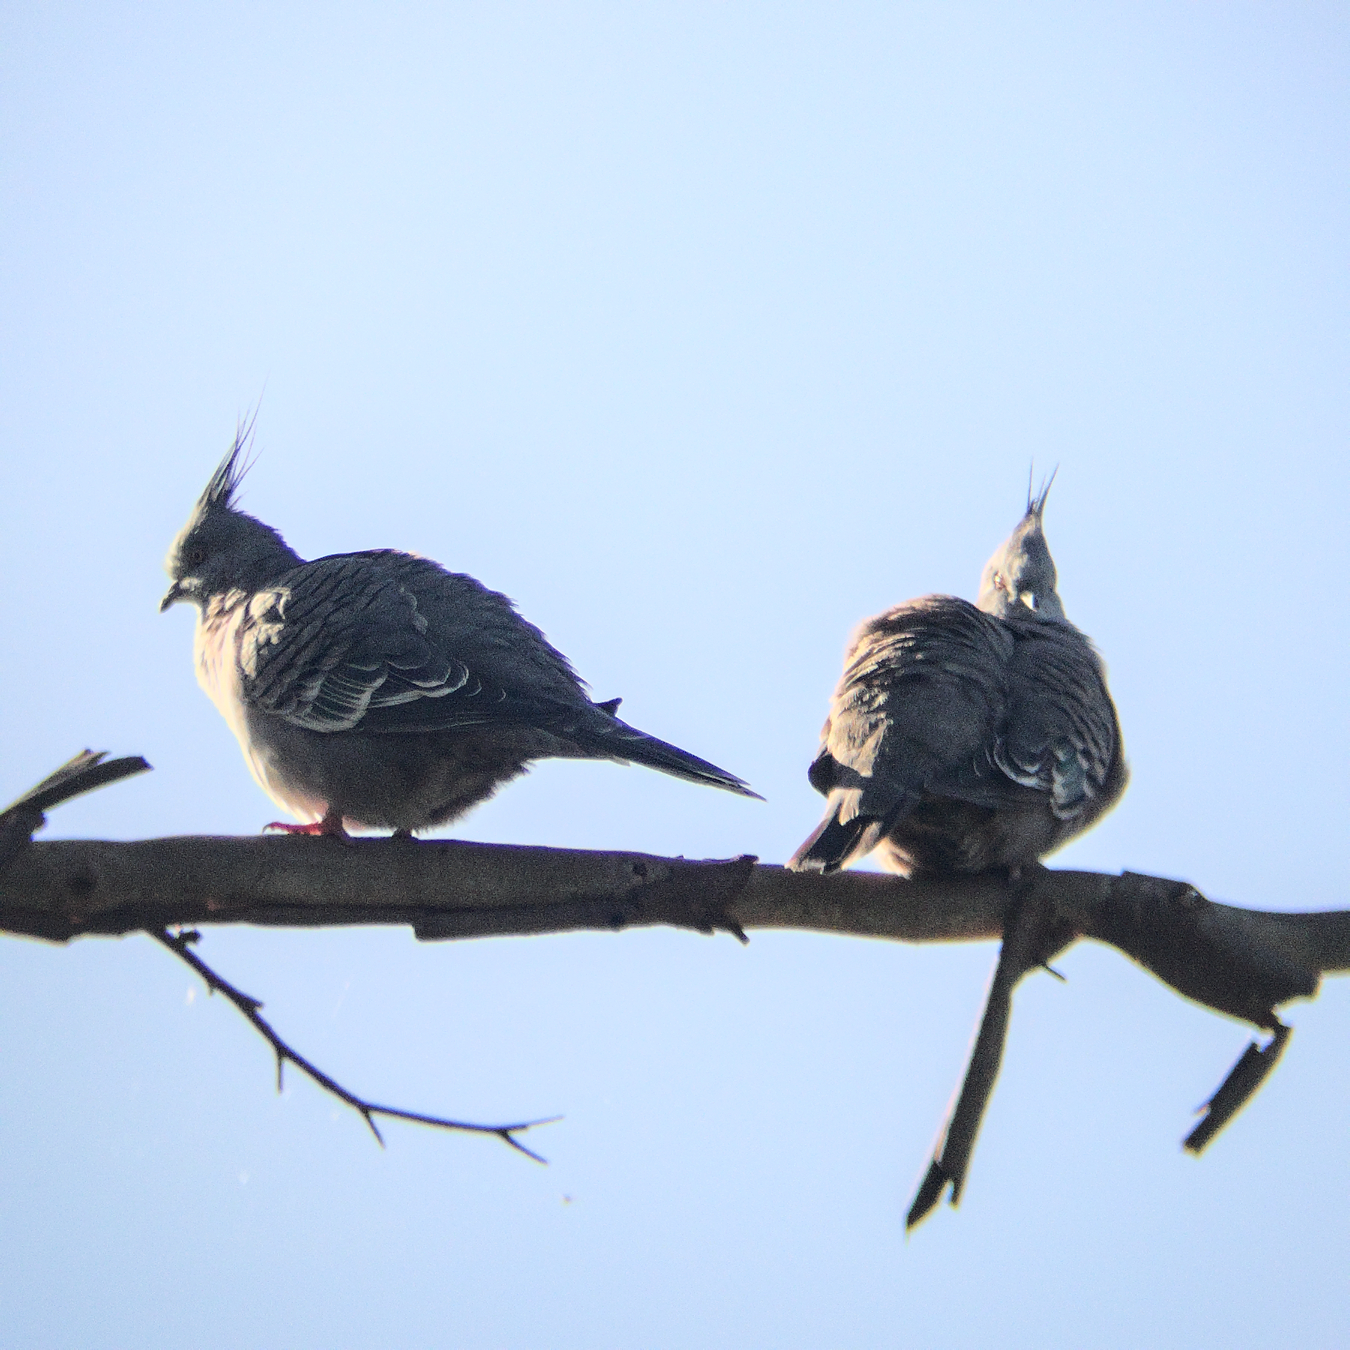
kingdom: Animalia
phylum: Chordata
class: Aves
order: Columbiformes
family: Columbidae
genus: Ocyphaps
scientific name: Ocyphaps lophotes
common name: Crested pigeon
